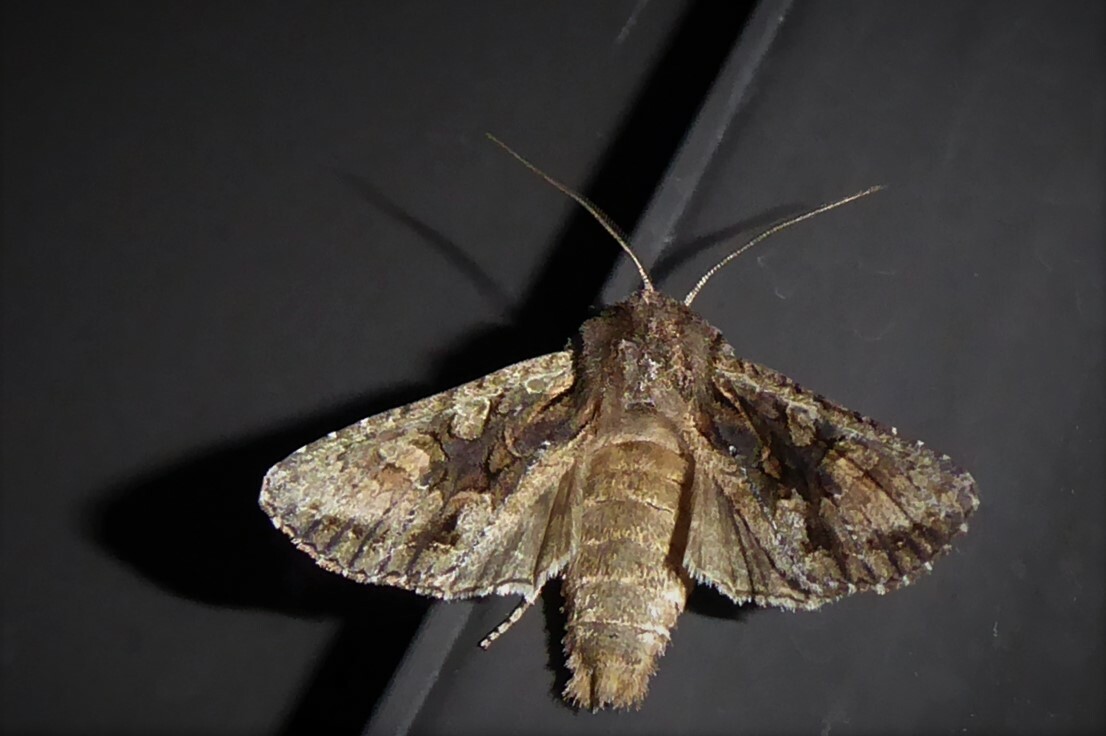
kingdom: Animalia
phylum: Arthropoda
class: Insecta
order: Lepidoptera
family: Noctuidae
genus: Ichneutica
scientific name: Ichneutica mutans
